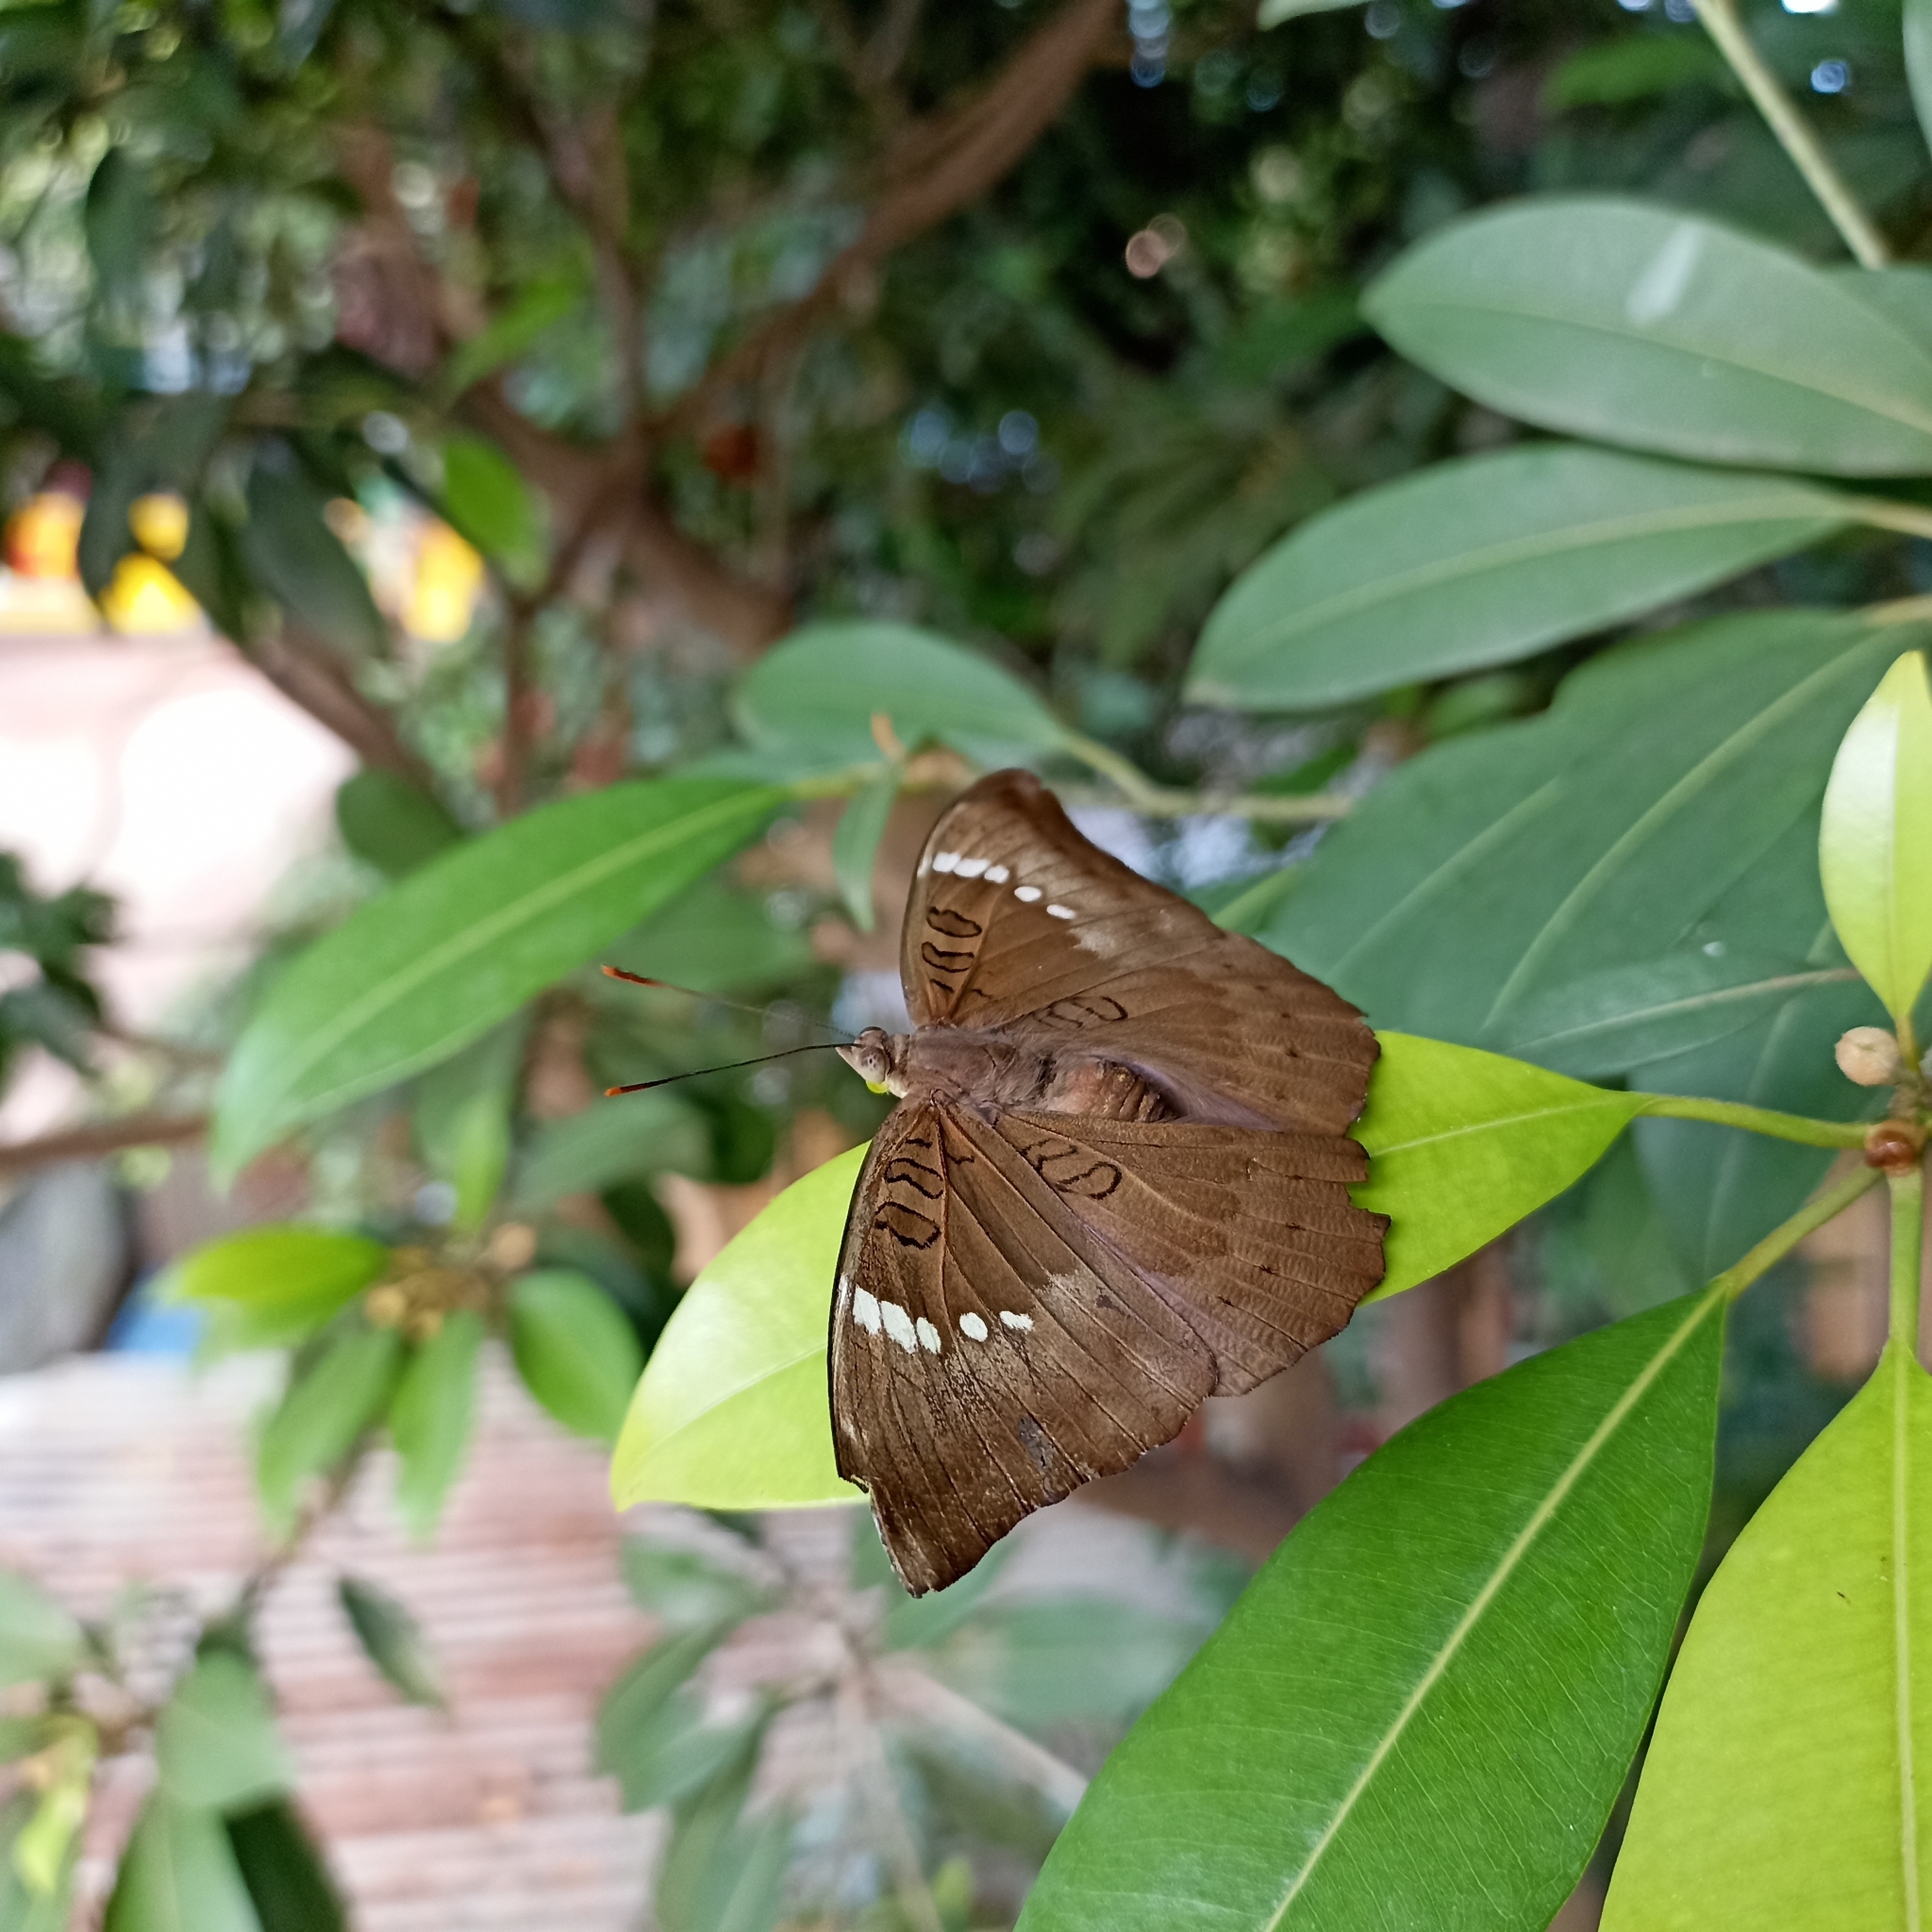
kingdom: Animalia
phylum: Arthropoda
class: Insecta
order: Lepidoptera
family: Nymphalidae
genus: Euthalia
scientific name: Euthalia aconthea
